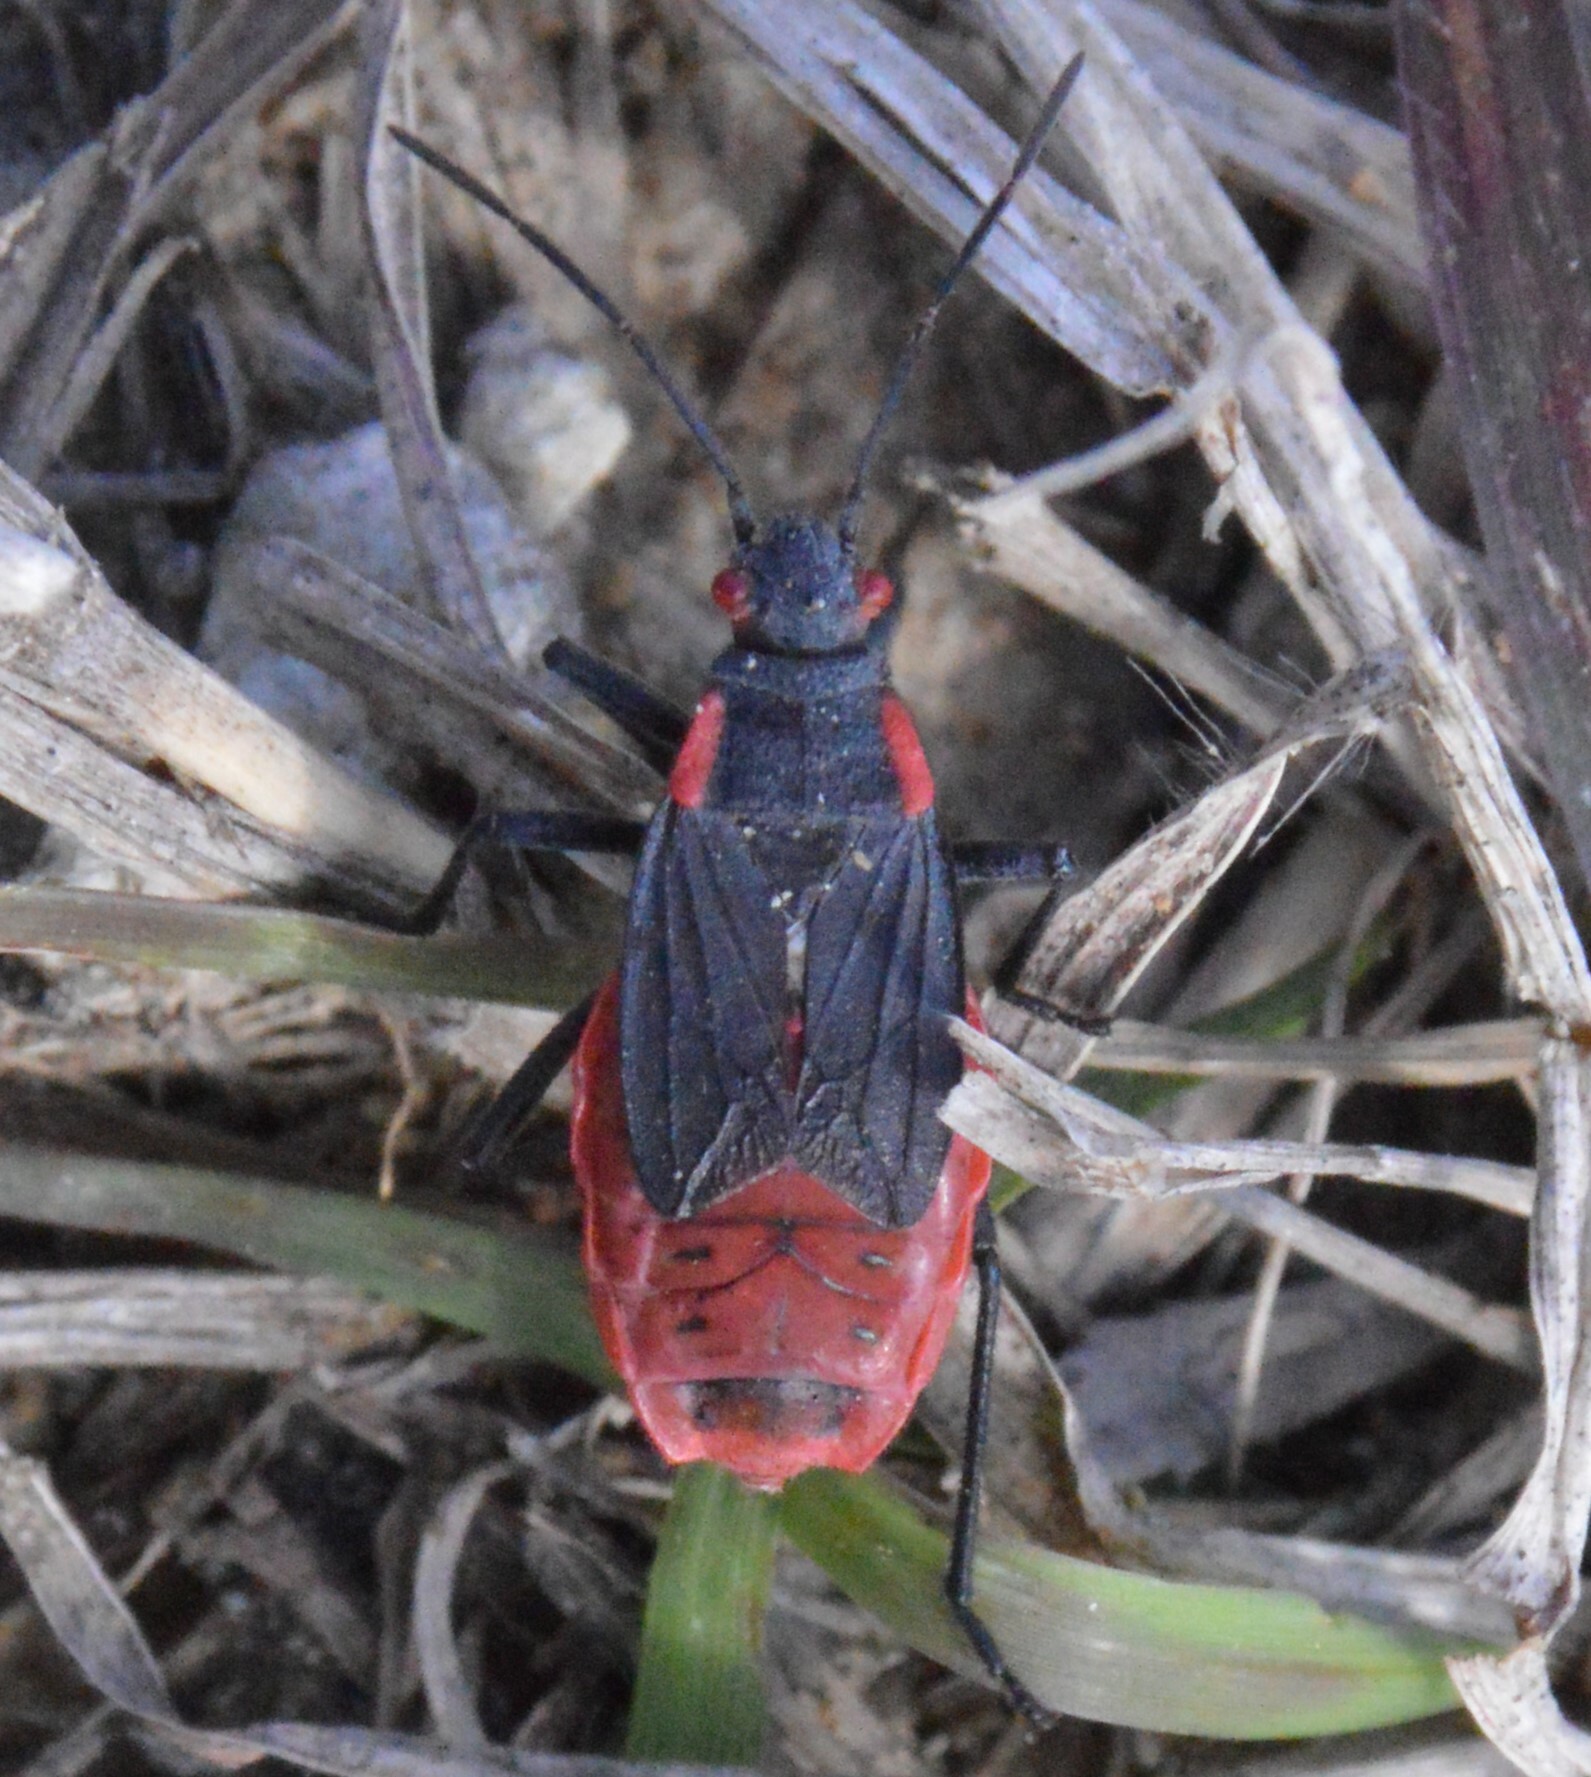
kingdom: Animalia
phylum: Arthropoda
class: Insecta
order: Hemiptera
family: Rhopalidae
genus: Jadera
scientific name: Jadera haematoloma
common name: Red-shouldered bug
